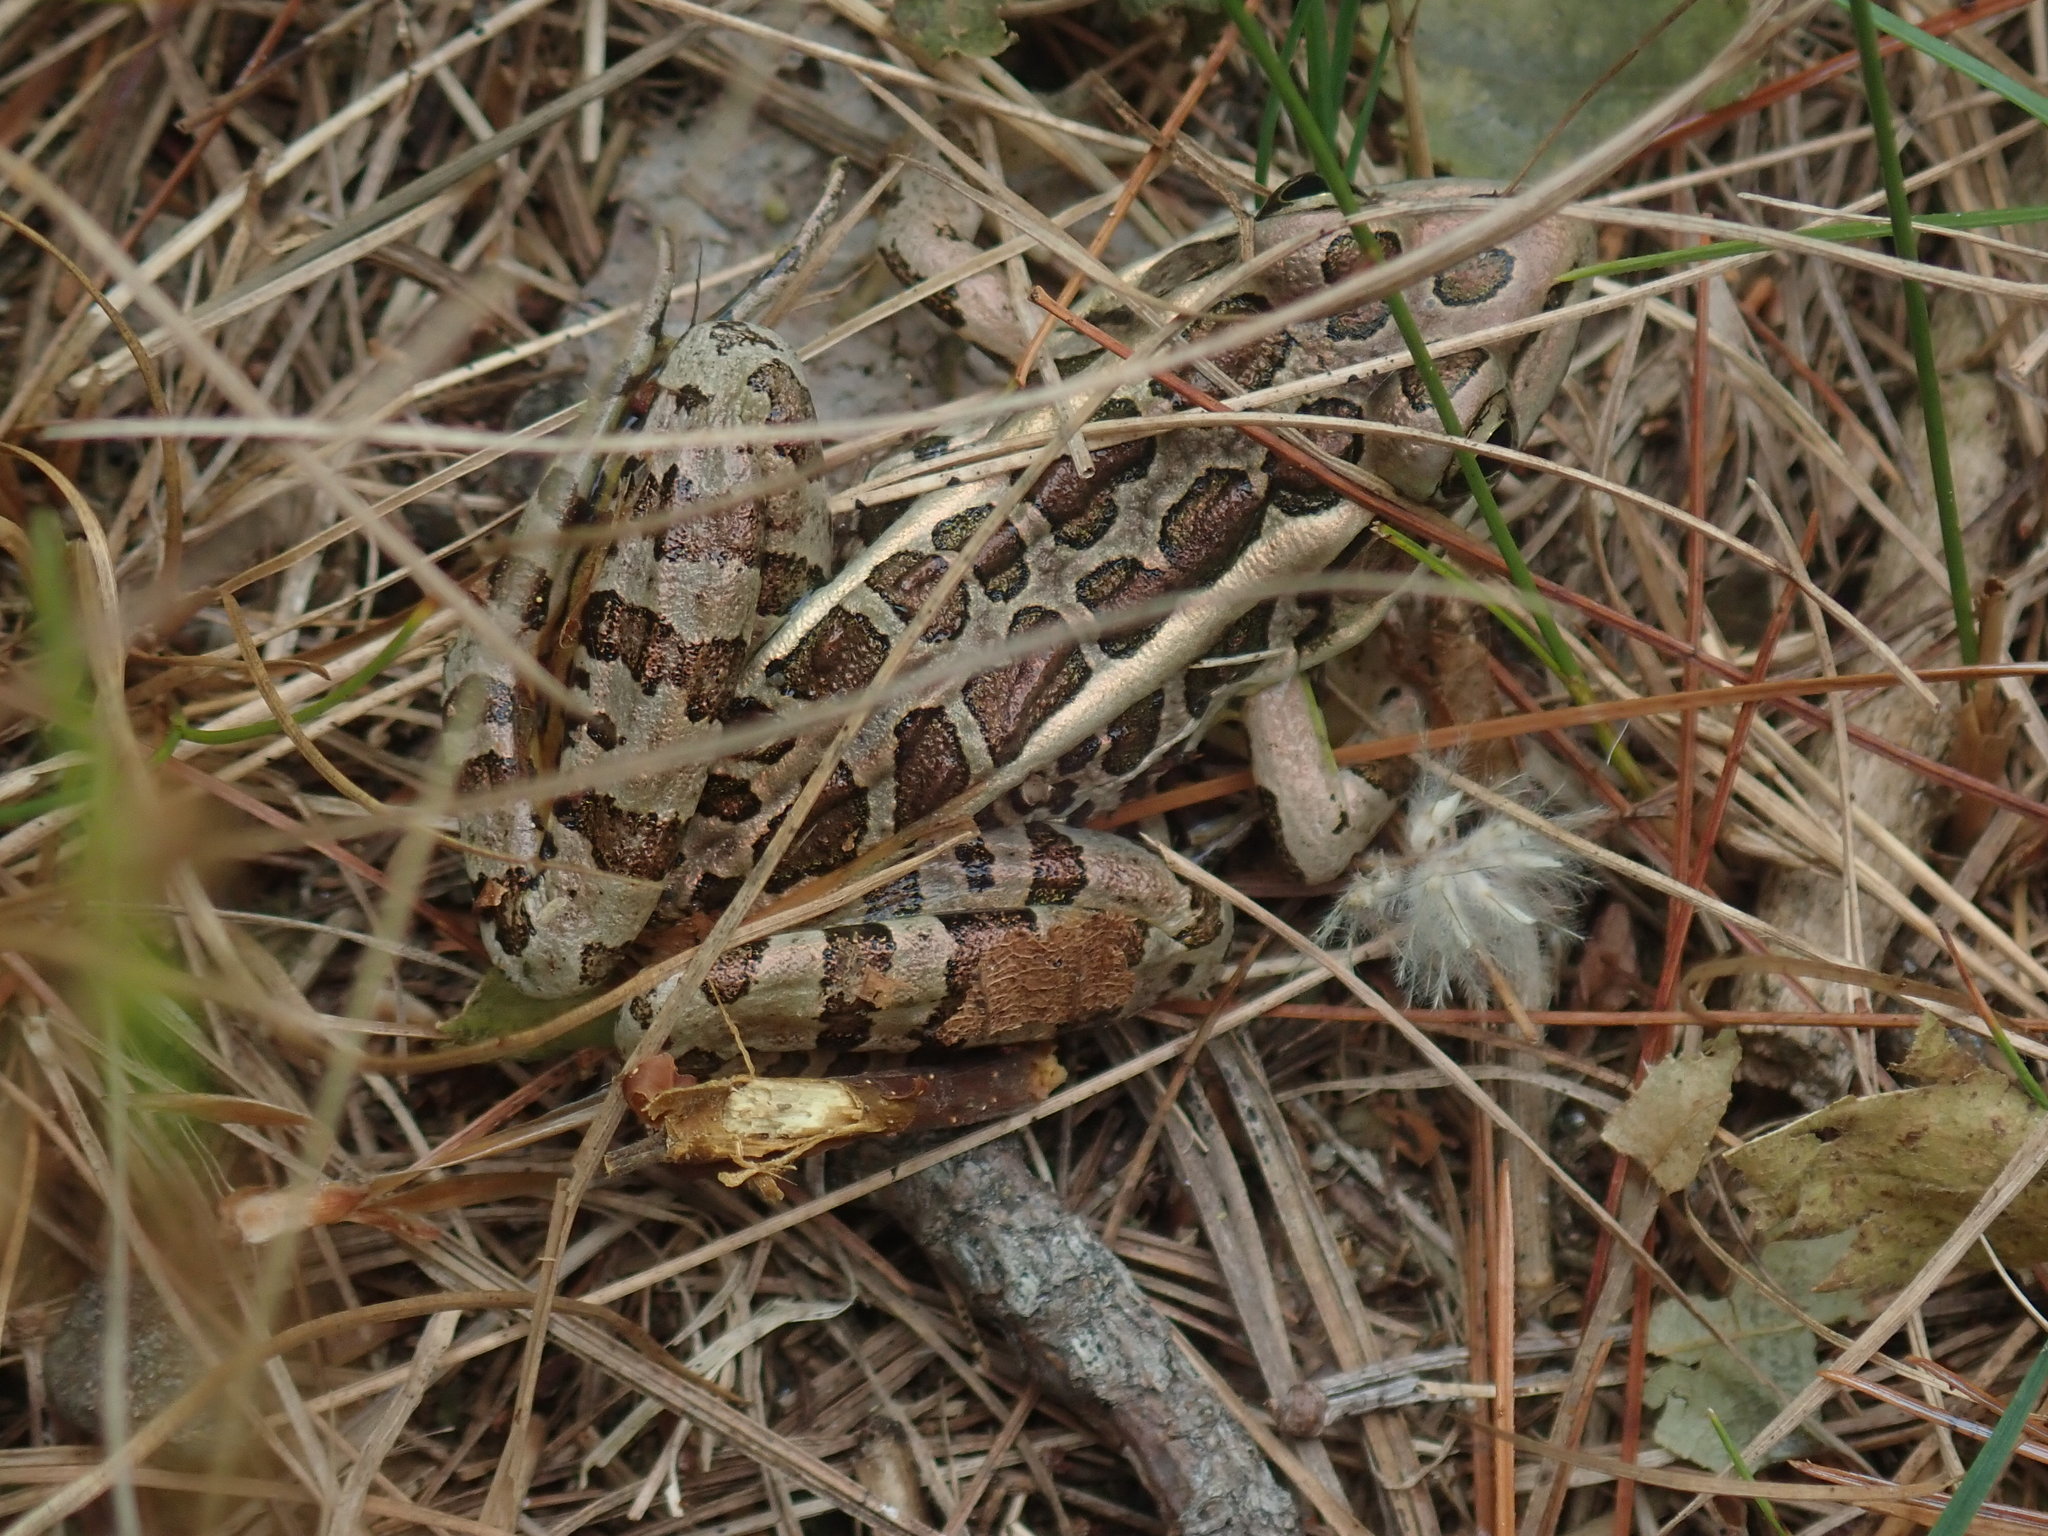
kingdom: Animalia
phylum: Chordata
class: Amphibia
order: Anura
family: Ranidae
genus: Lithobates
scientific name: Lithobates palustris
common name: Pickerel frog
